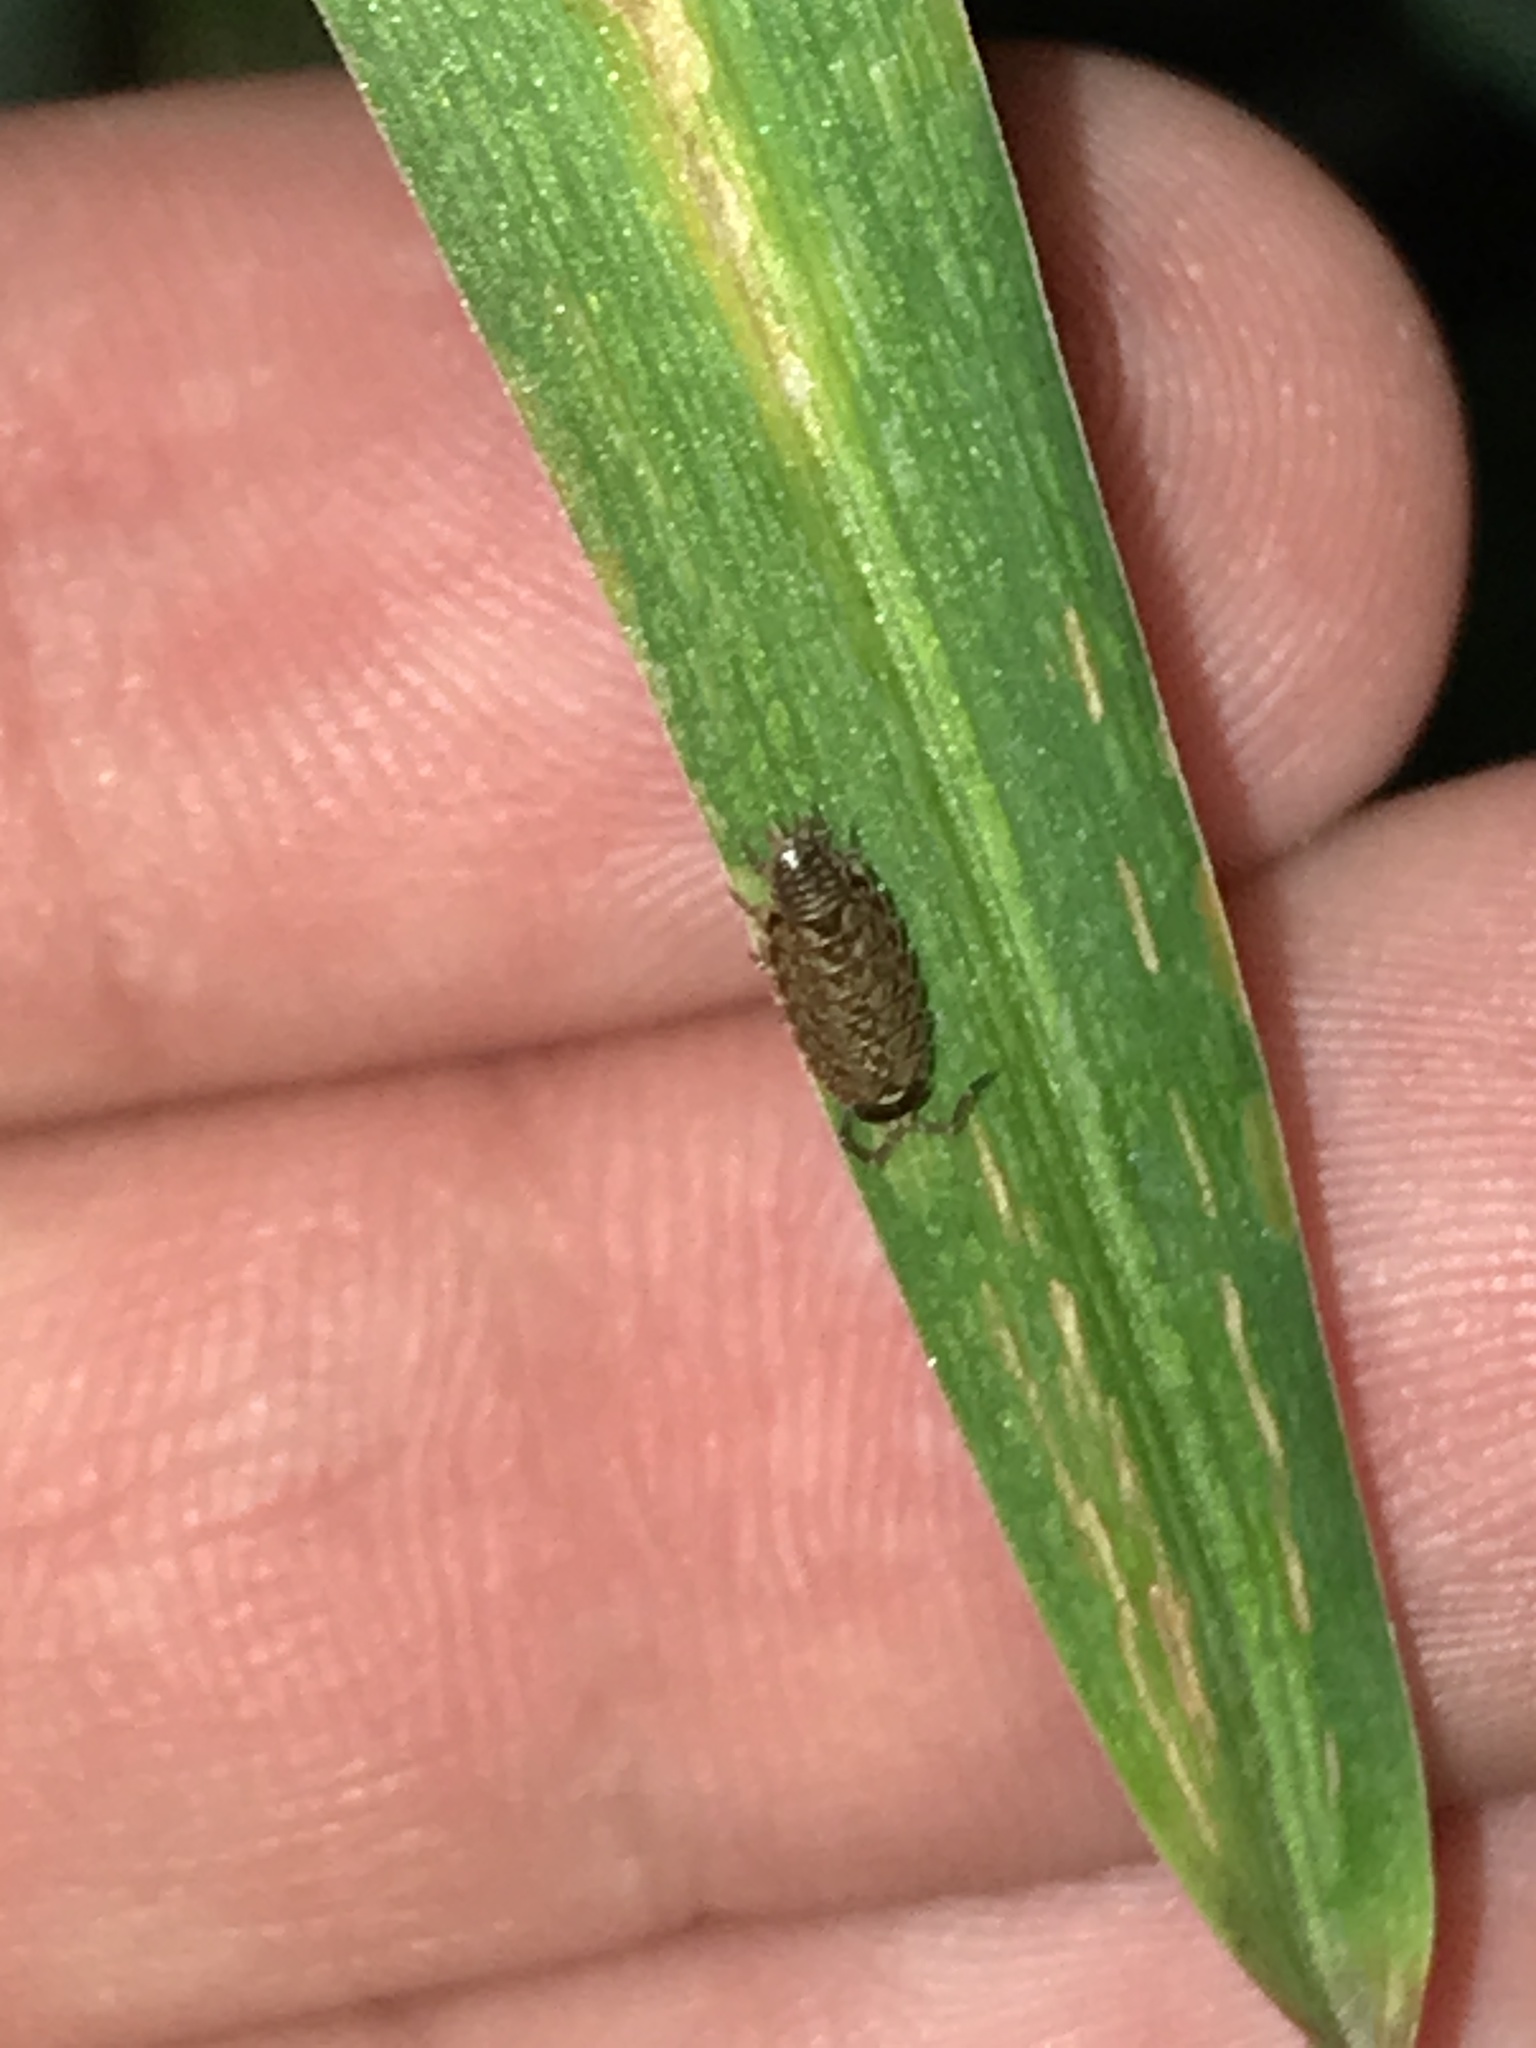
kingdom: Animalia
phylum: Arthropoda
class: Malacostraca
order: Isopoda
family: Philosciidae
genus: Philoscia
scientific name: Philoscia muscorum
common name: Common striped woodlouse
